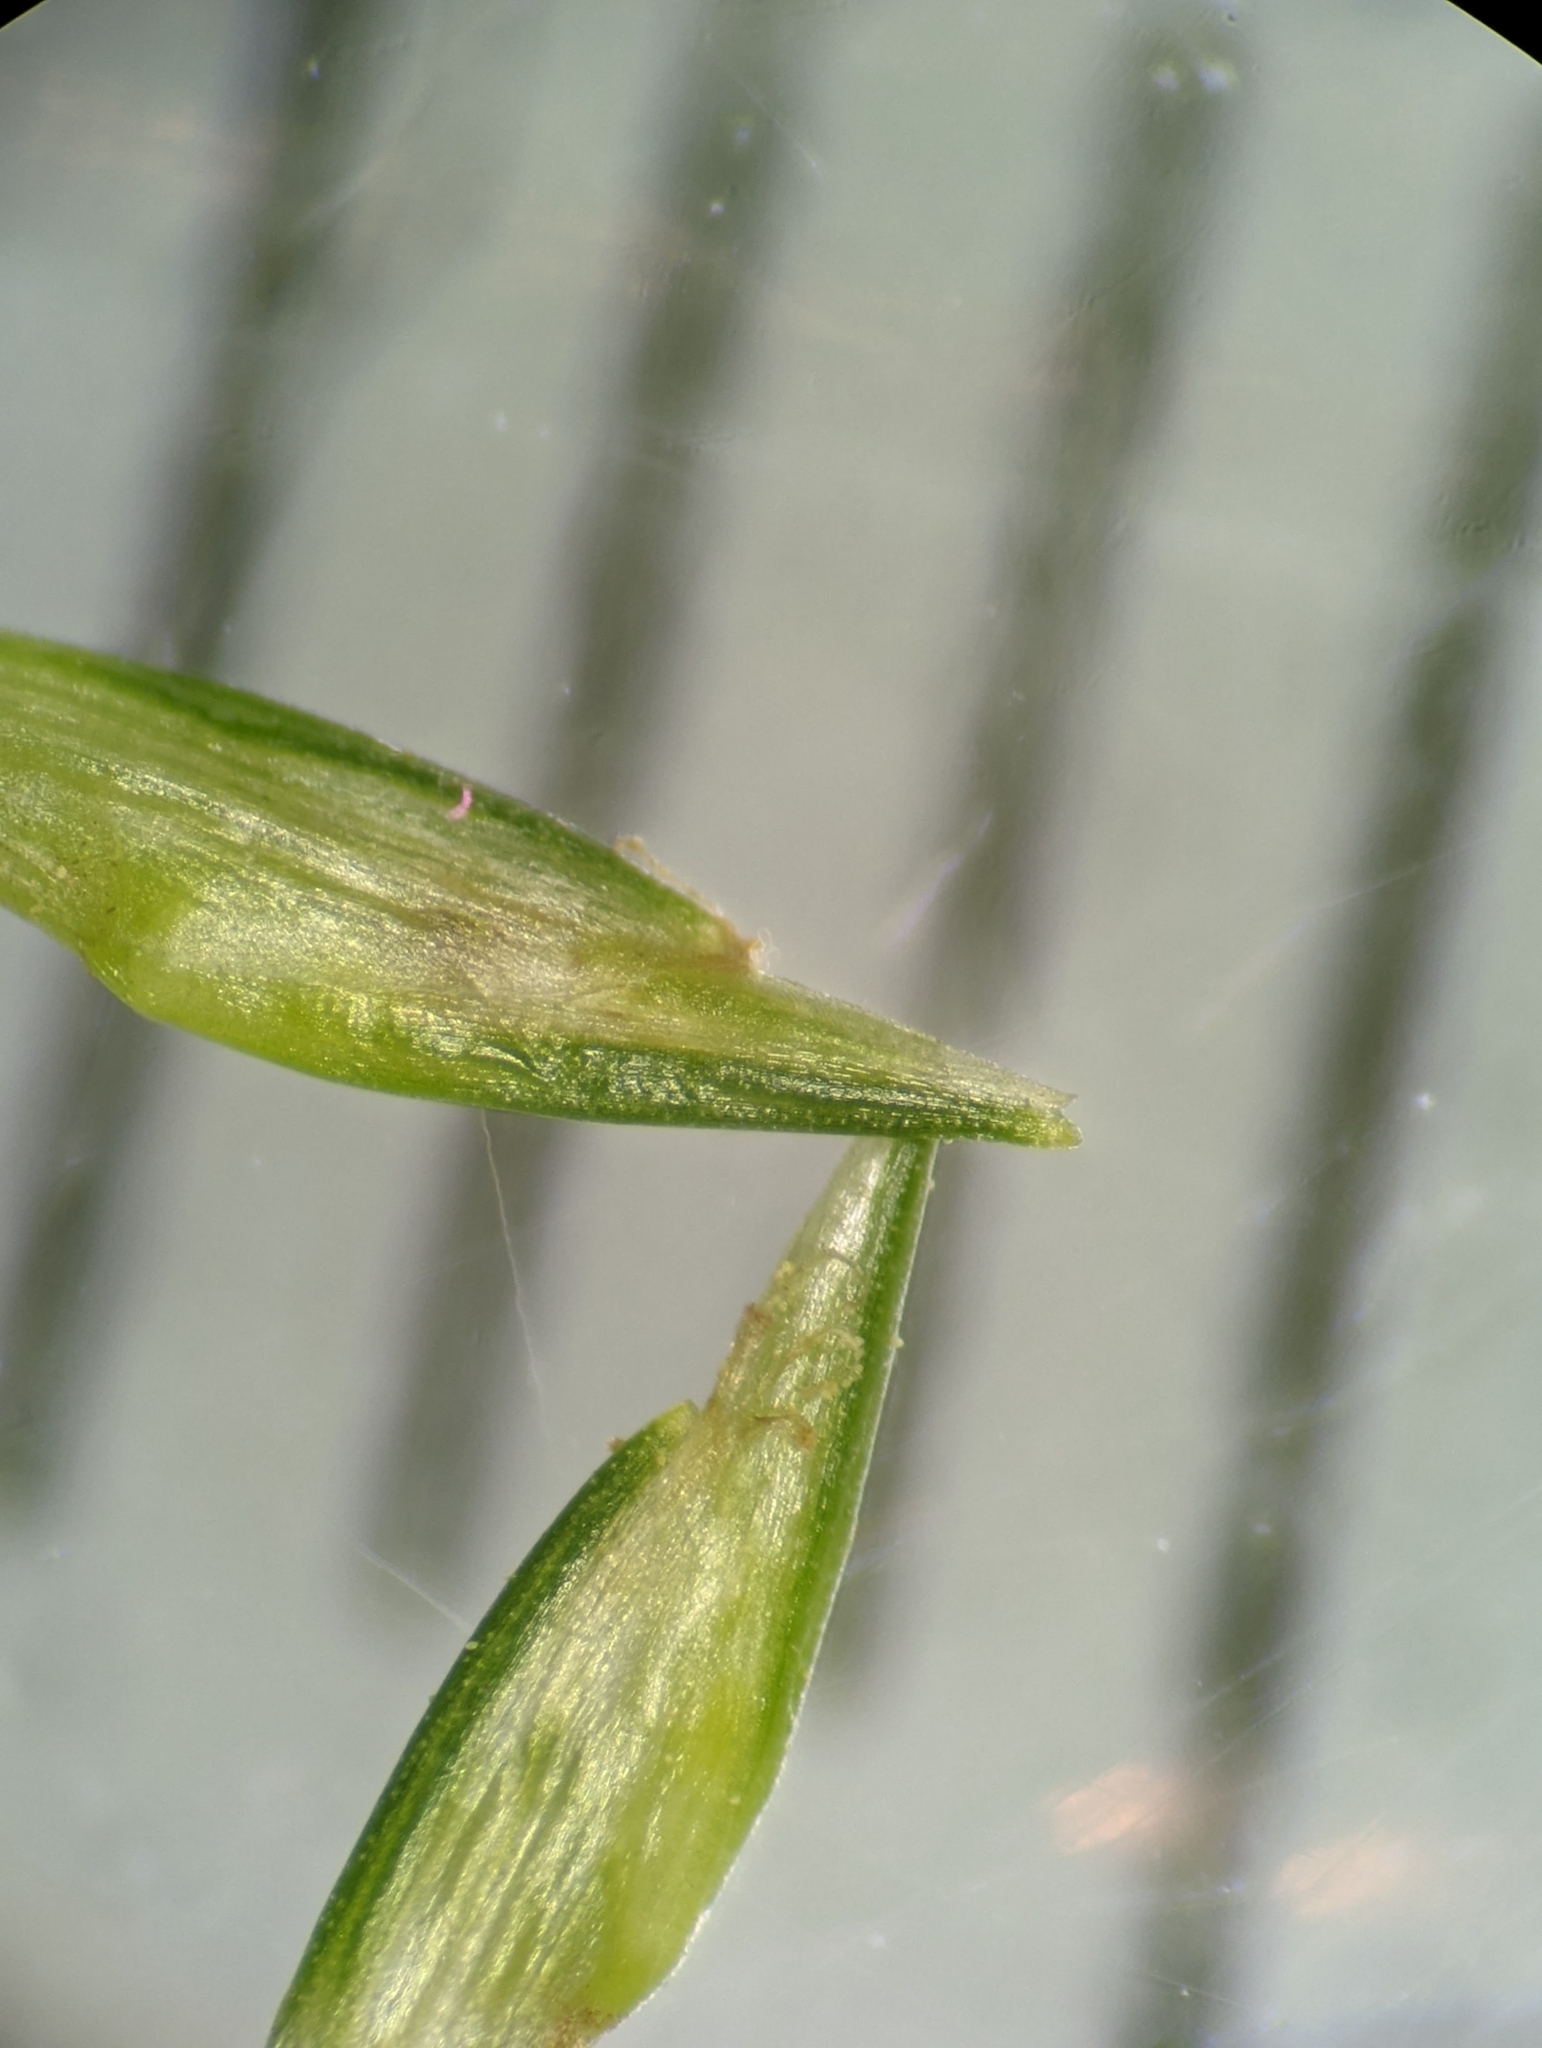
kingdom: Plantae
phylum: Tracheophyta
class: Liliopsida
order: Poales
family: Cyperaceae
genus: Cyperus
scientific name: Cyperus retrorsus
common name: Pinebarren flat sedge
